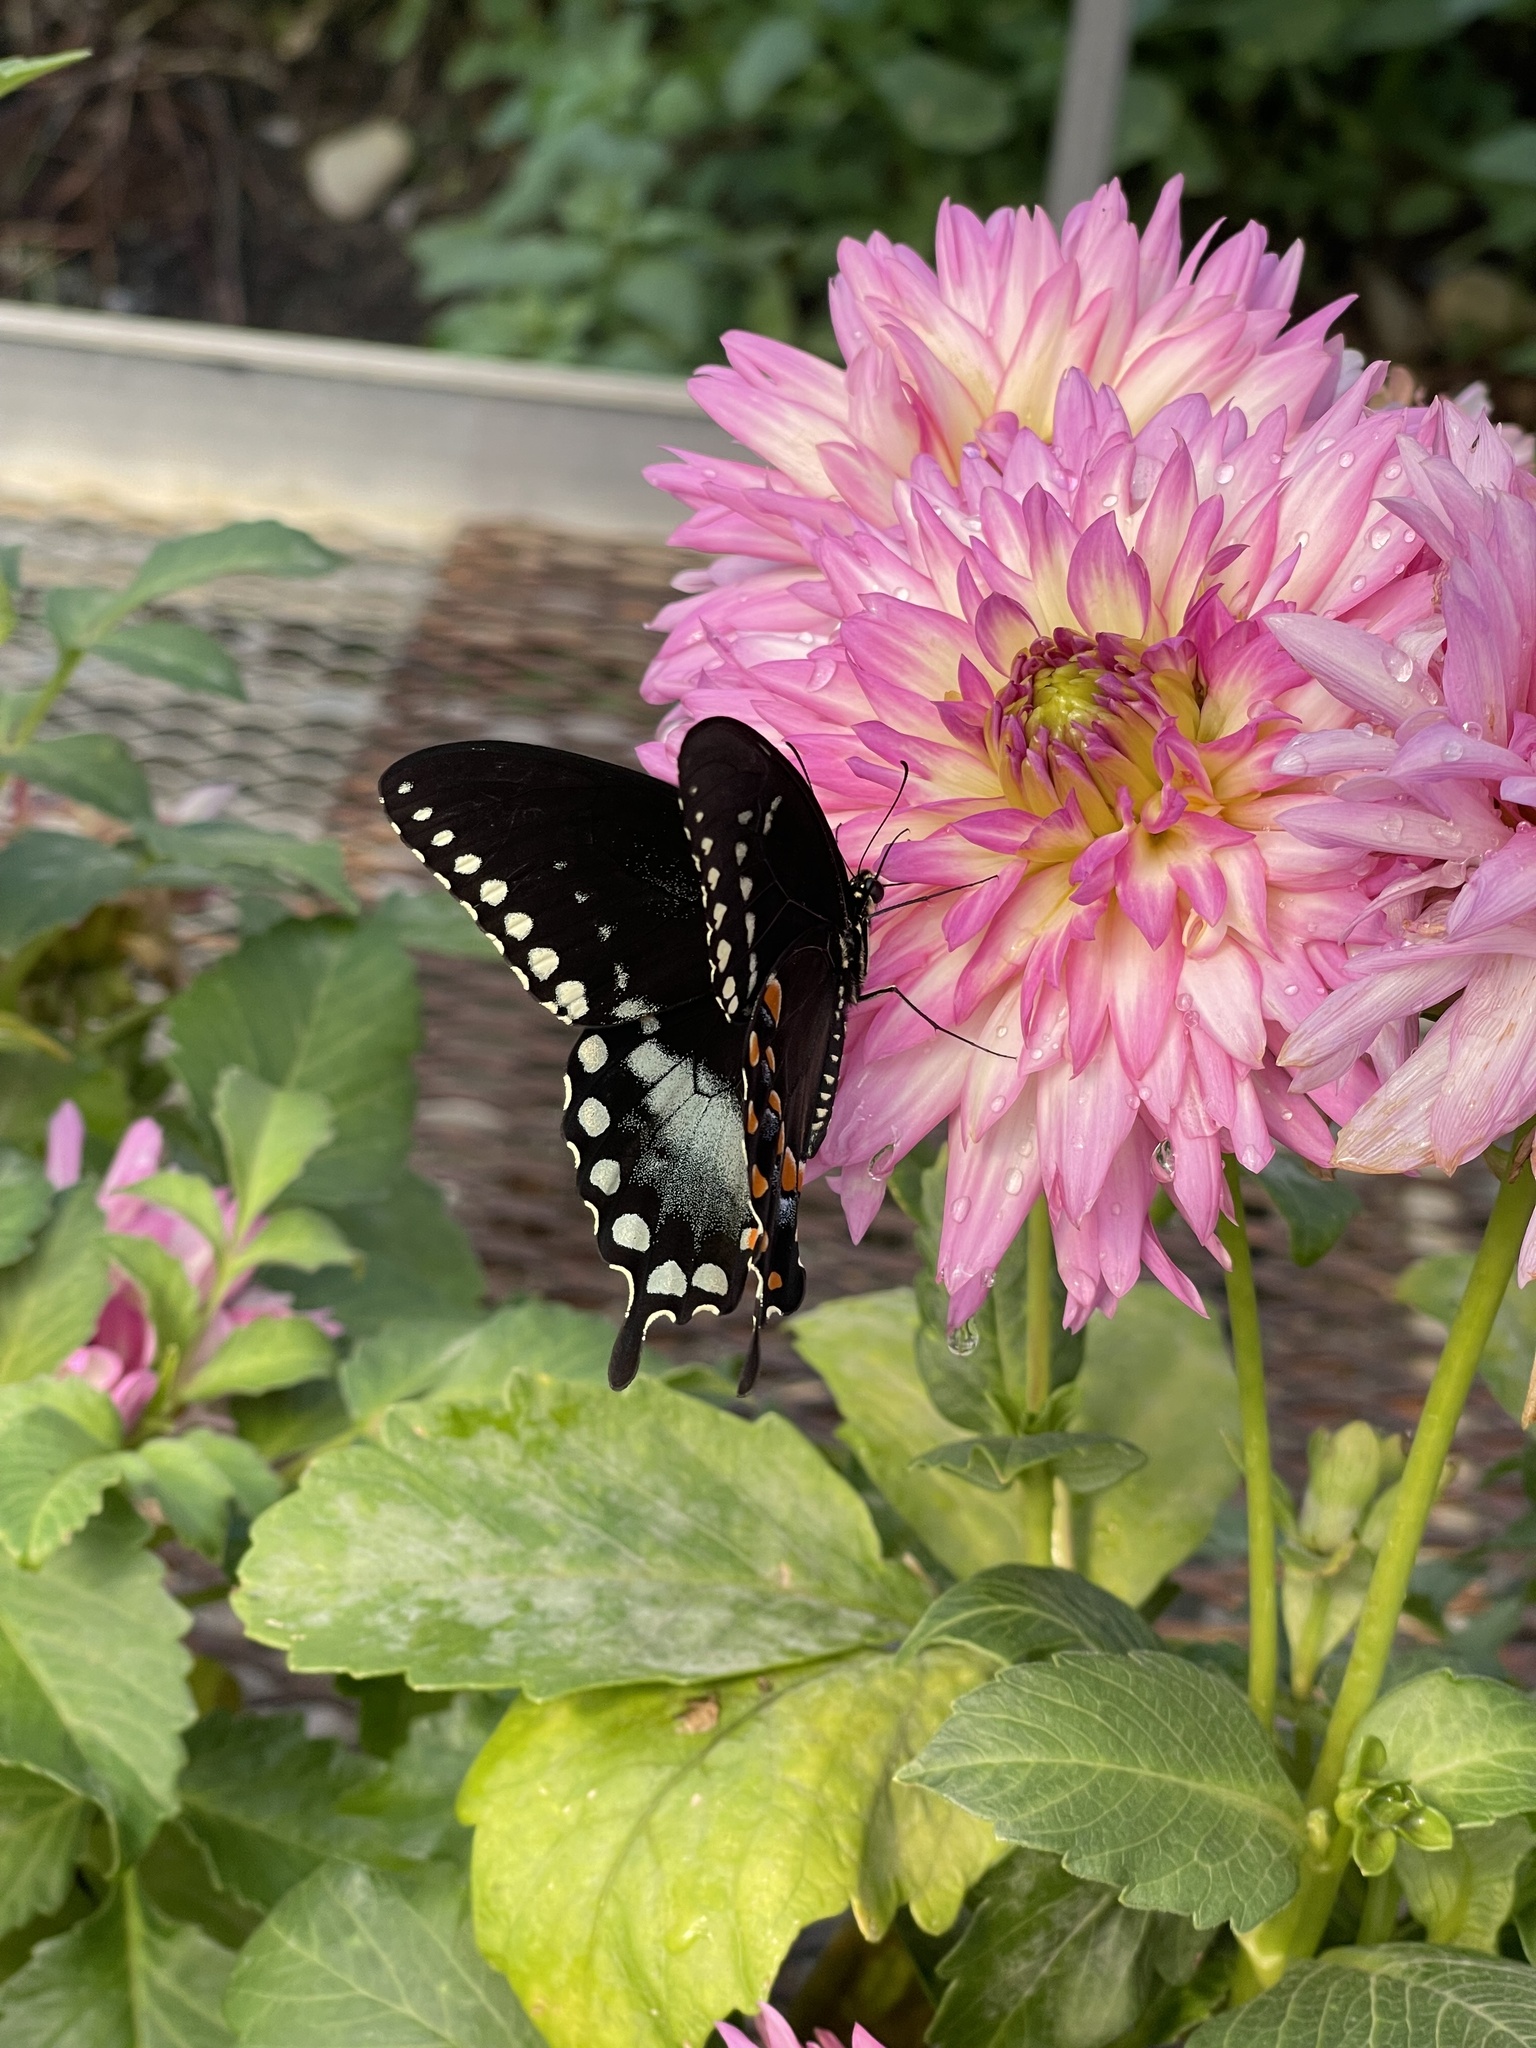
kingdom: Animalia
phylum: Arthropoda
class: Insecta
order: Lepidoptera
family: Papilionidae
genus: Papilio
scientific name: Papilio troilus
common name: Spicebush swallowtail
